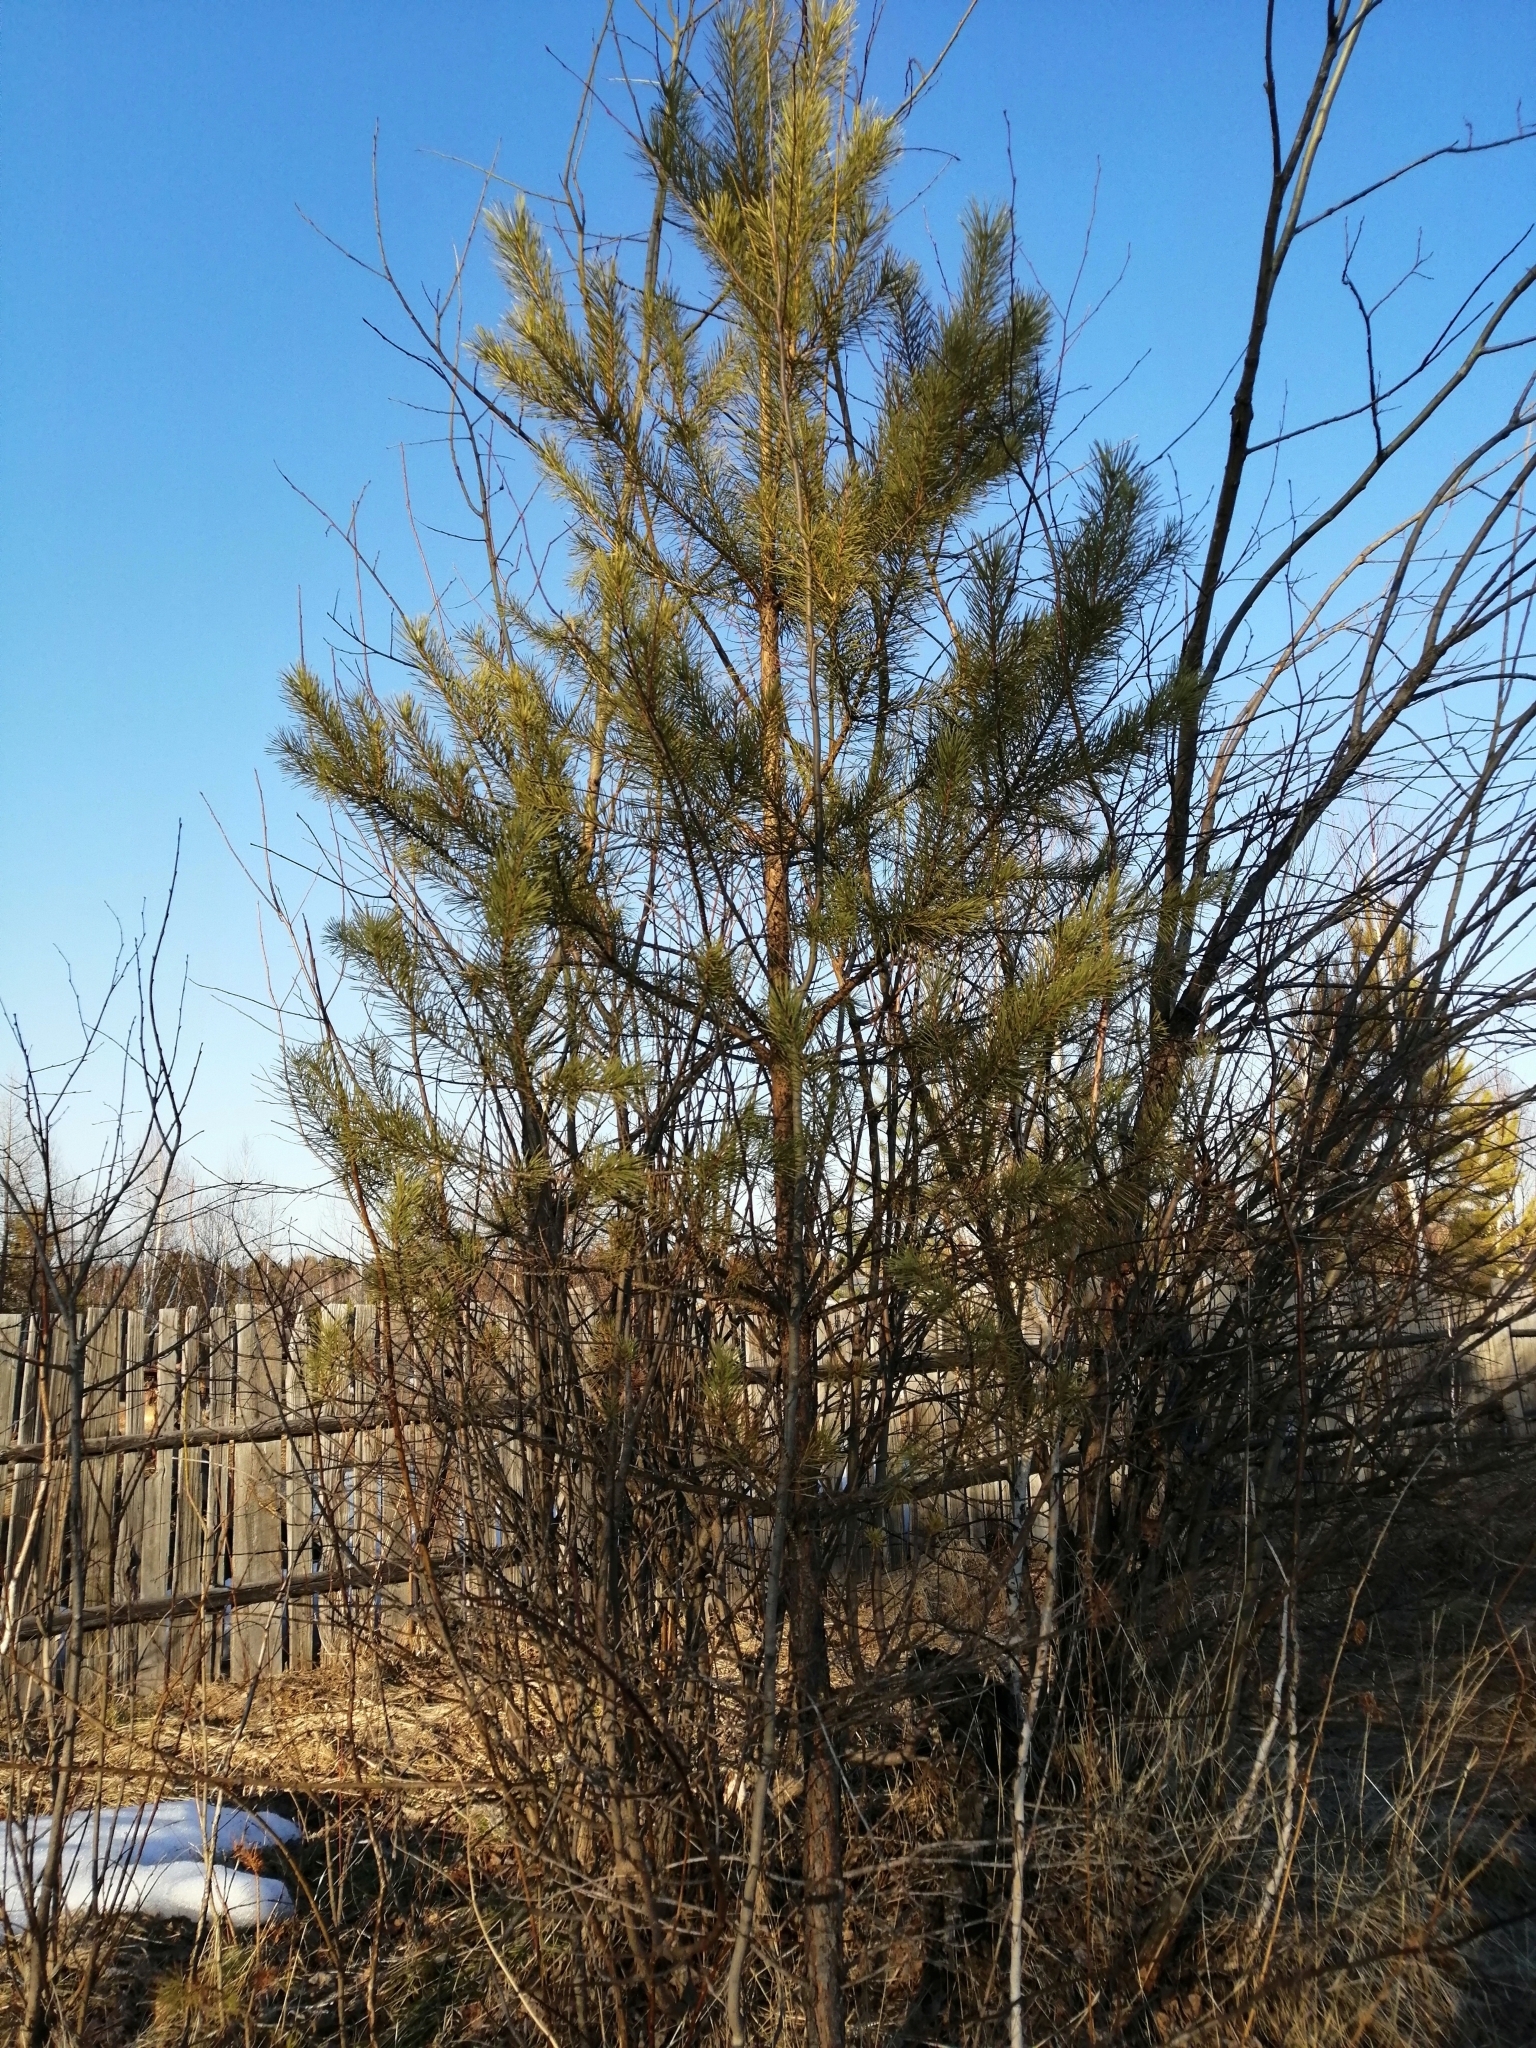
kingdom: Plantae
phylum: Tracheophyta
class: Pinopsida
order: Pinales
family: Pinaceae
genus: Pinus
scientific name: Pinus sylvestris
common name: Scots pine
